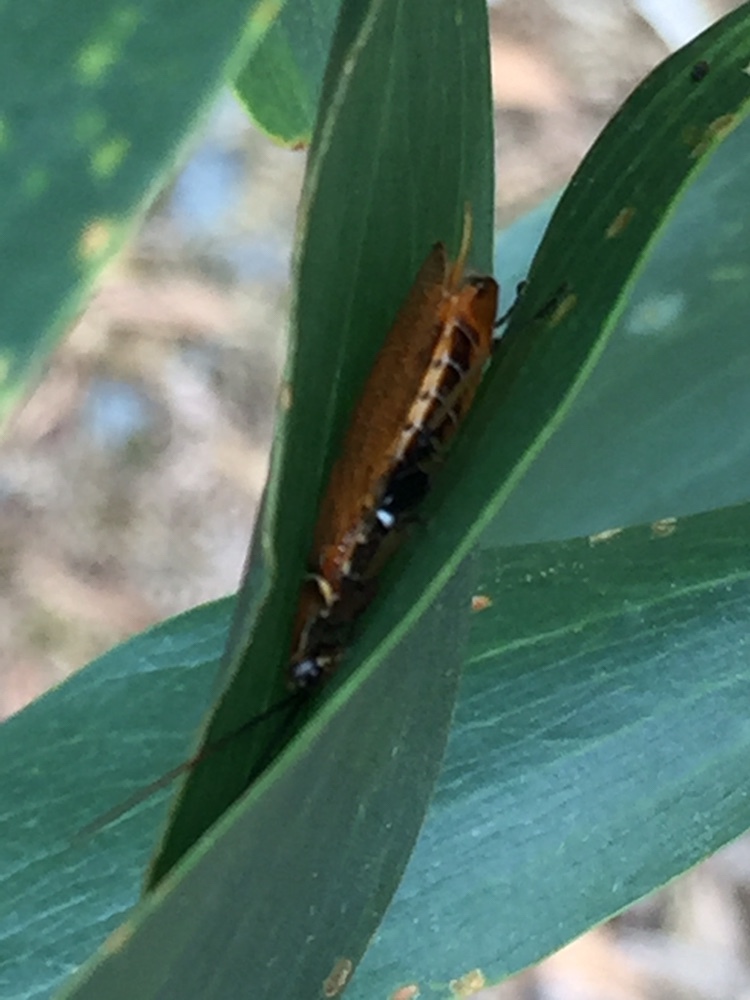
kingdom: Animalia
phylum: Arthropoda
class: Insecta
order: Blattodea
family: Ectobiidae
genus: Balta
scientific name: Balta bicolor
